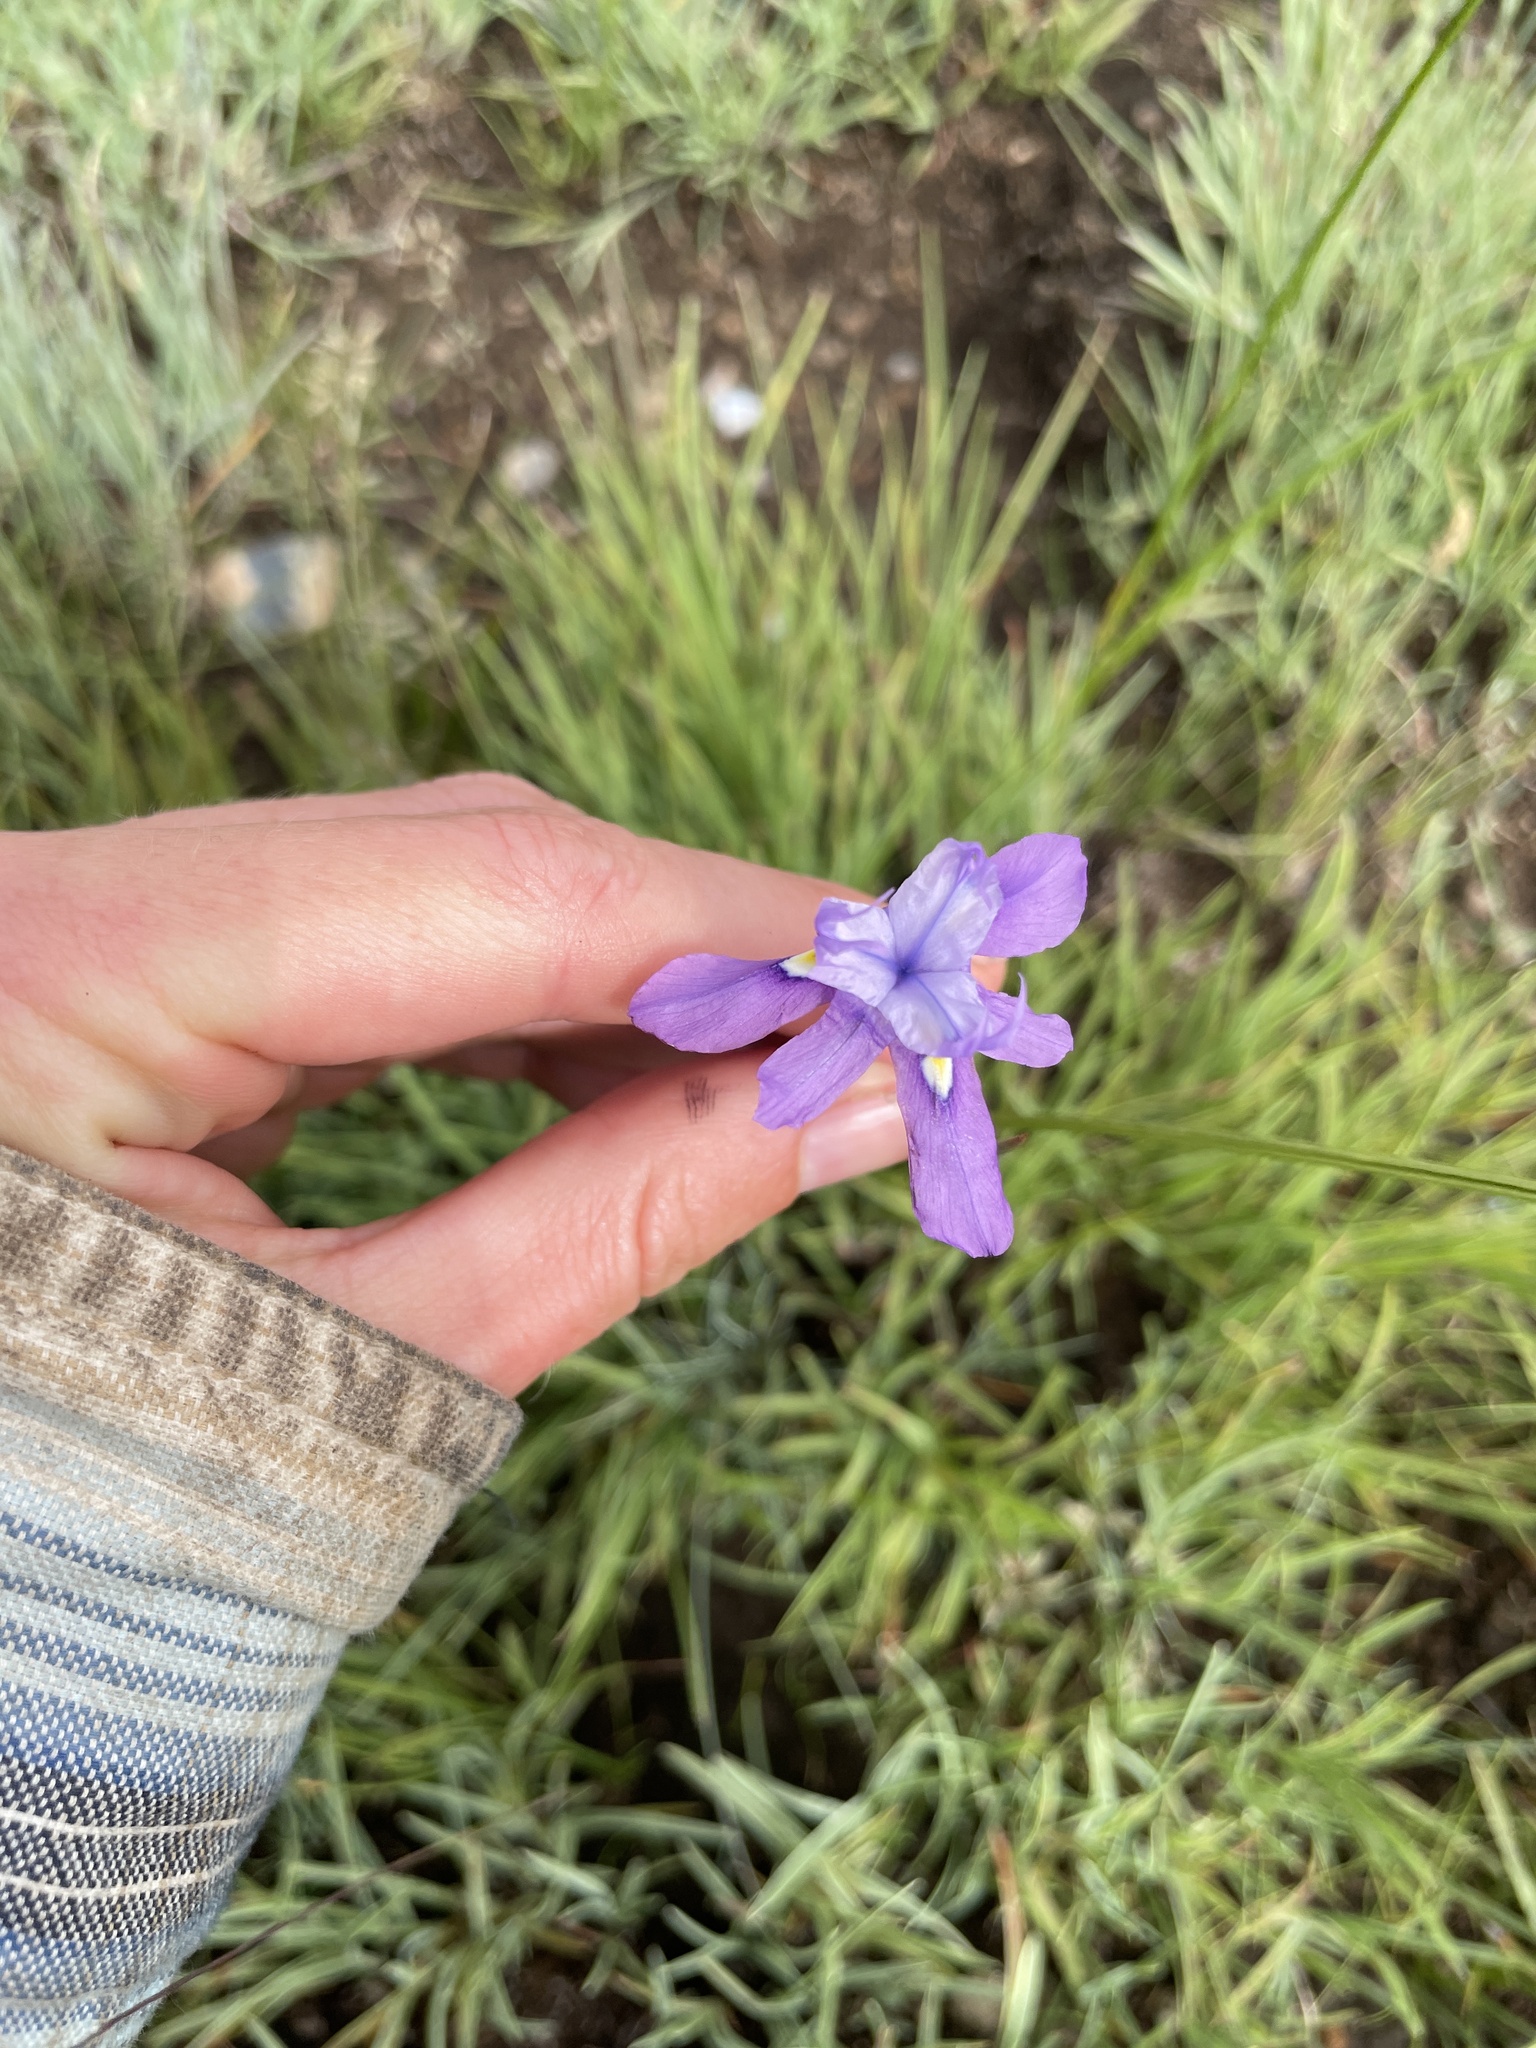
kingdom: Plantae
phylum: Tracheophyta
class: Liliopsida
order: Asparagales
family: Iridaceae
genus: Moraea
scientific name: Moraea inclinata
